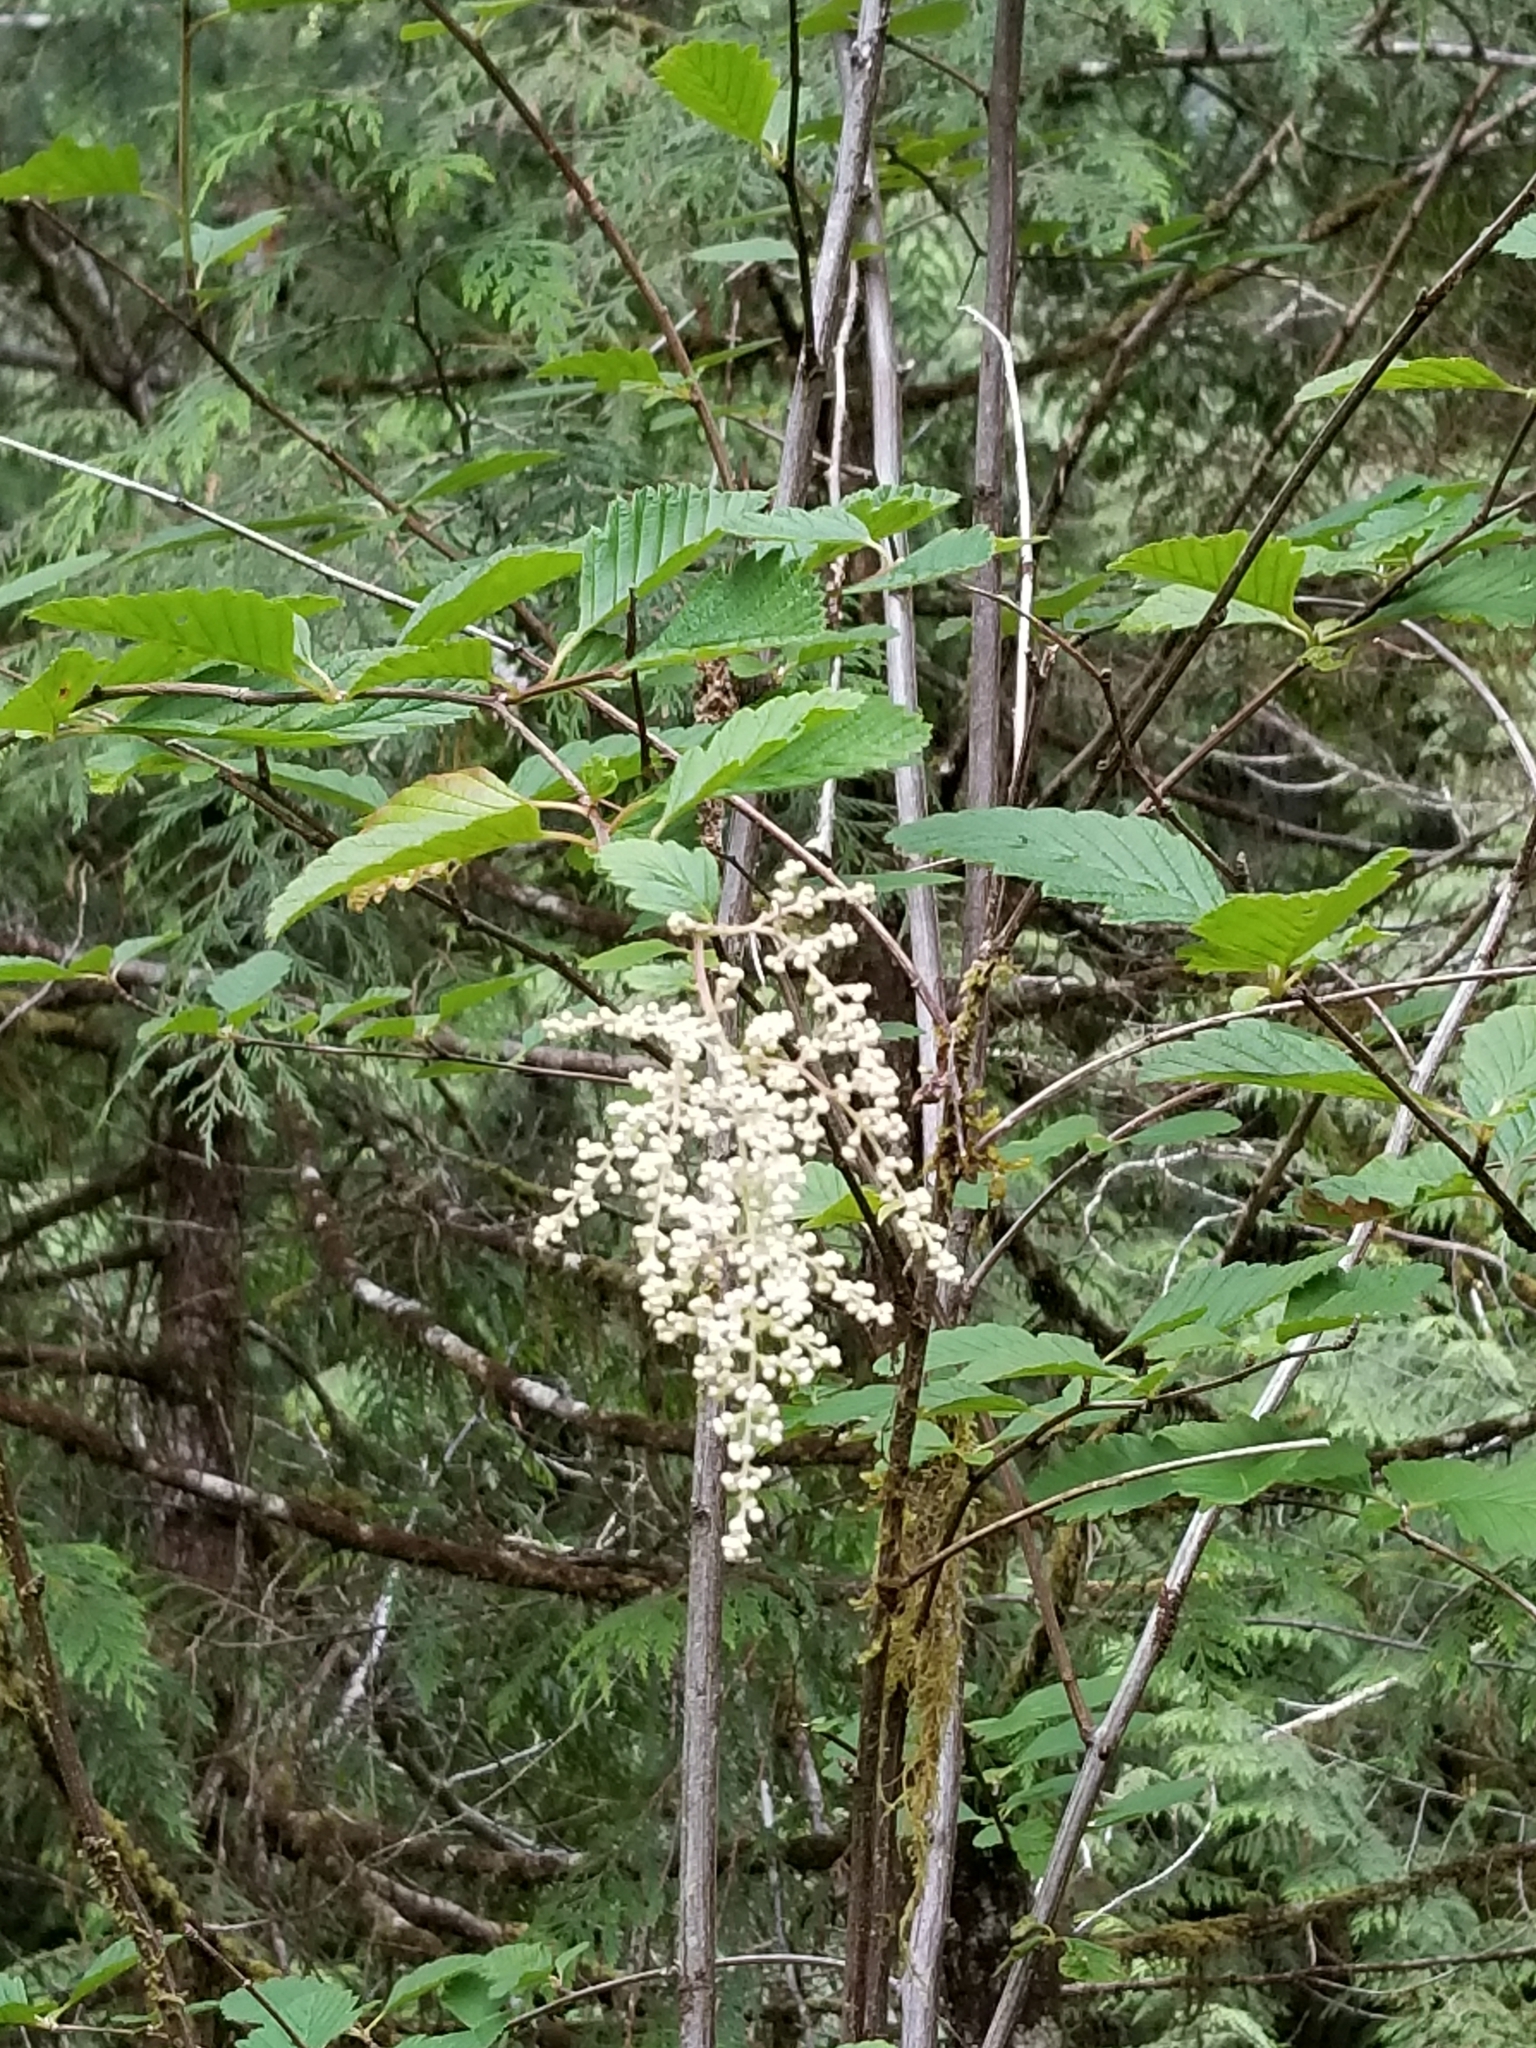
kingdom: Plantae
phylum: Tracheophyta
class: Magnoliopsida
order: Rosales
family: Rosaceae
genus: Holodiscus
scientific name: Holodiscus discolor
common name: Oceanspray
